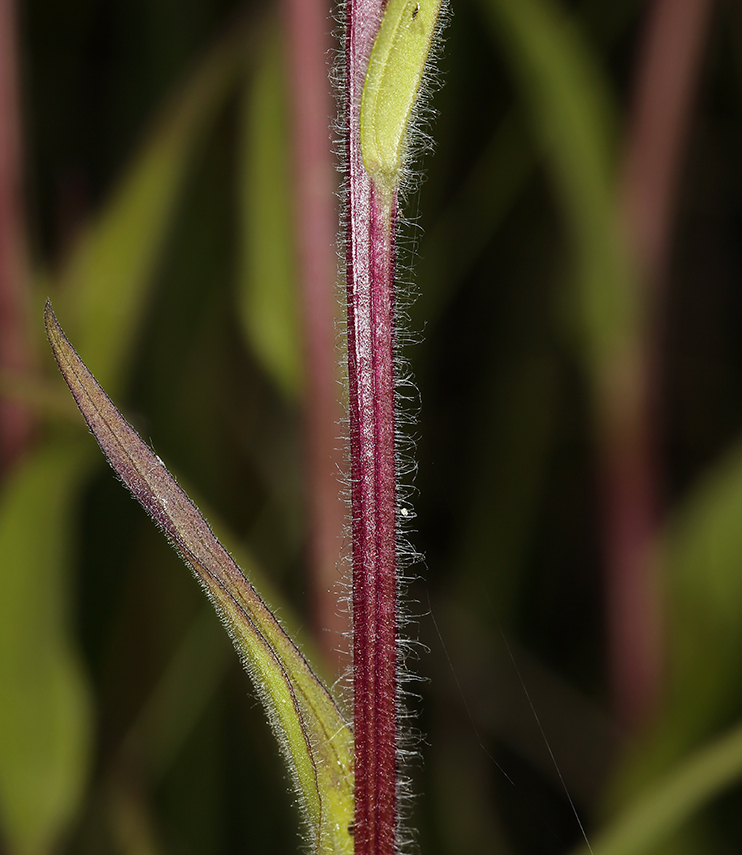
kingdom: Plantae
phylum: Tracheophyta
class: Magnoliopsida
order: Lamiales
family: Orobanchaceae
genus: Castilleja
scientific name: Castilleja miniata
